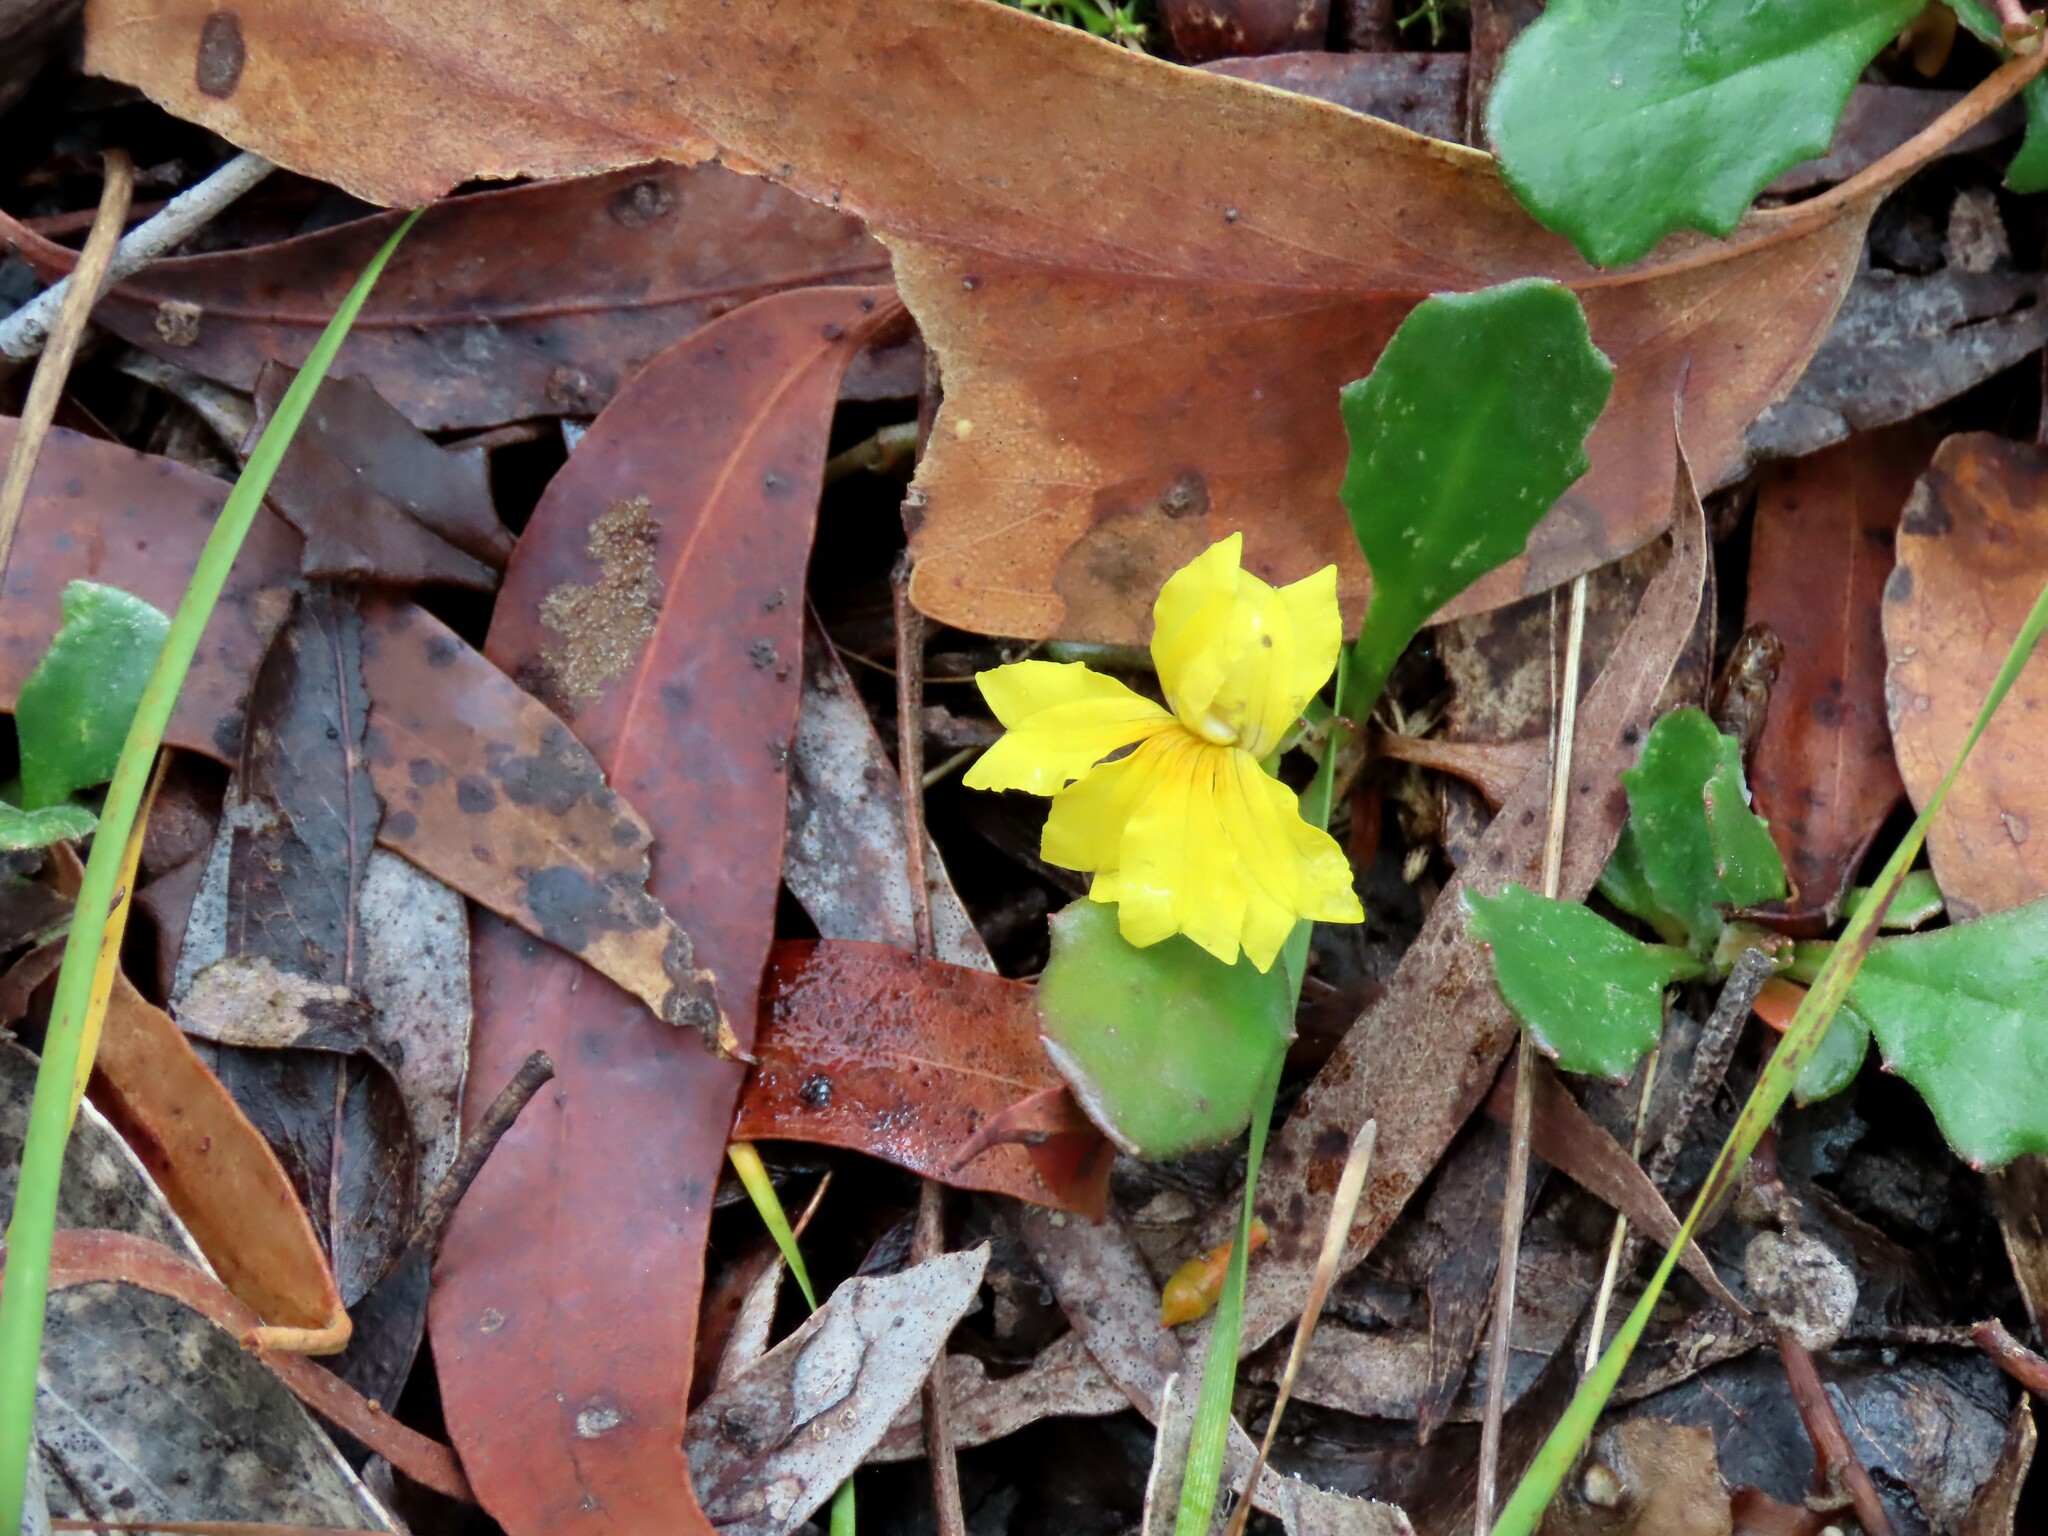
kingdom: Plantae
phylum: Tracheophyta
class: Magnoliopsida
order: Asterales
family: Goodeniaceae
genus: Goodenia
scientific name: Goodenia lanata
